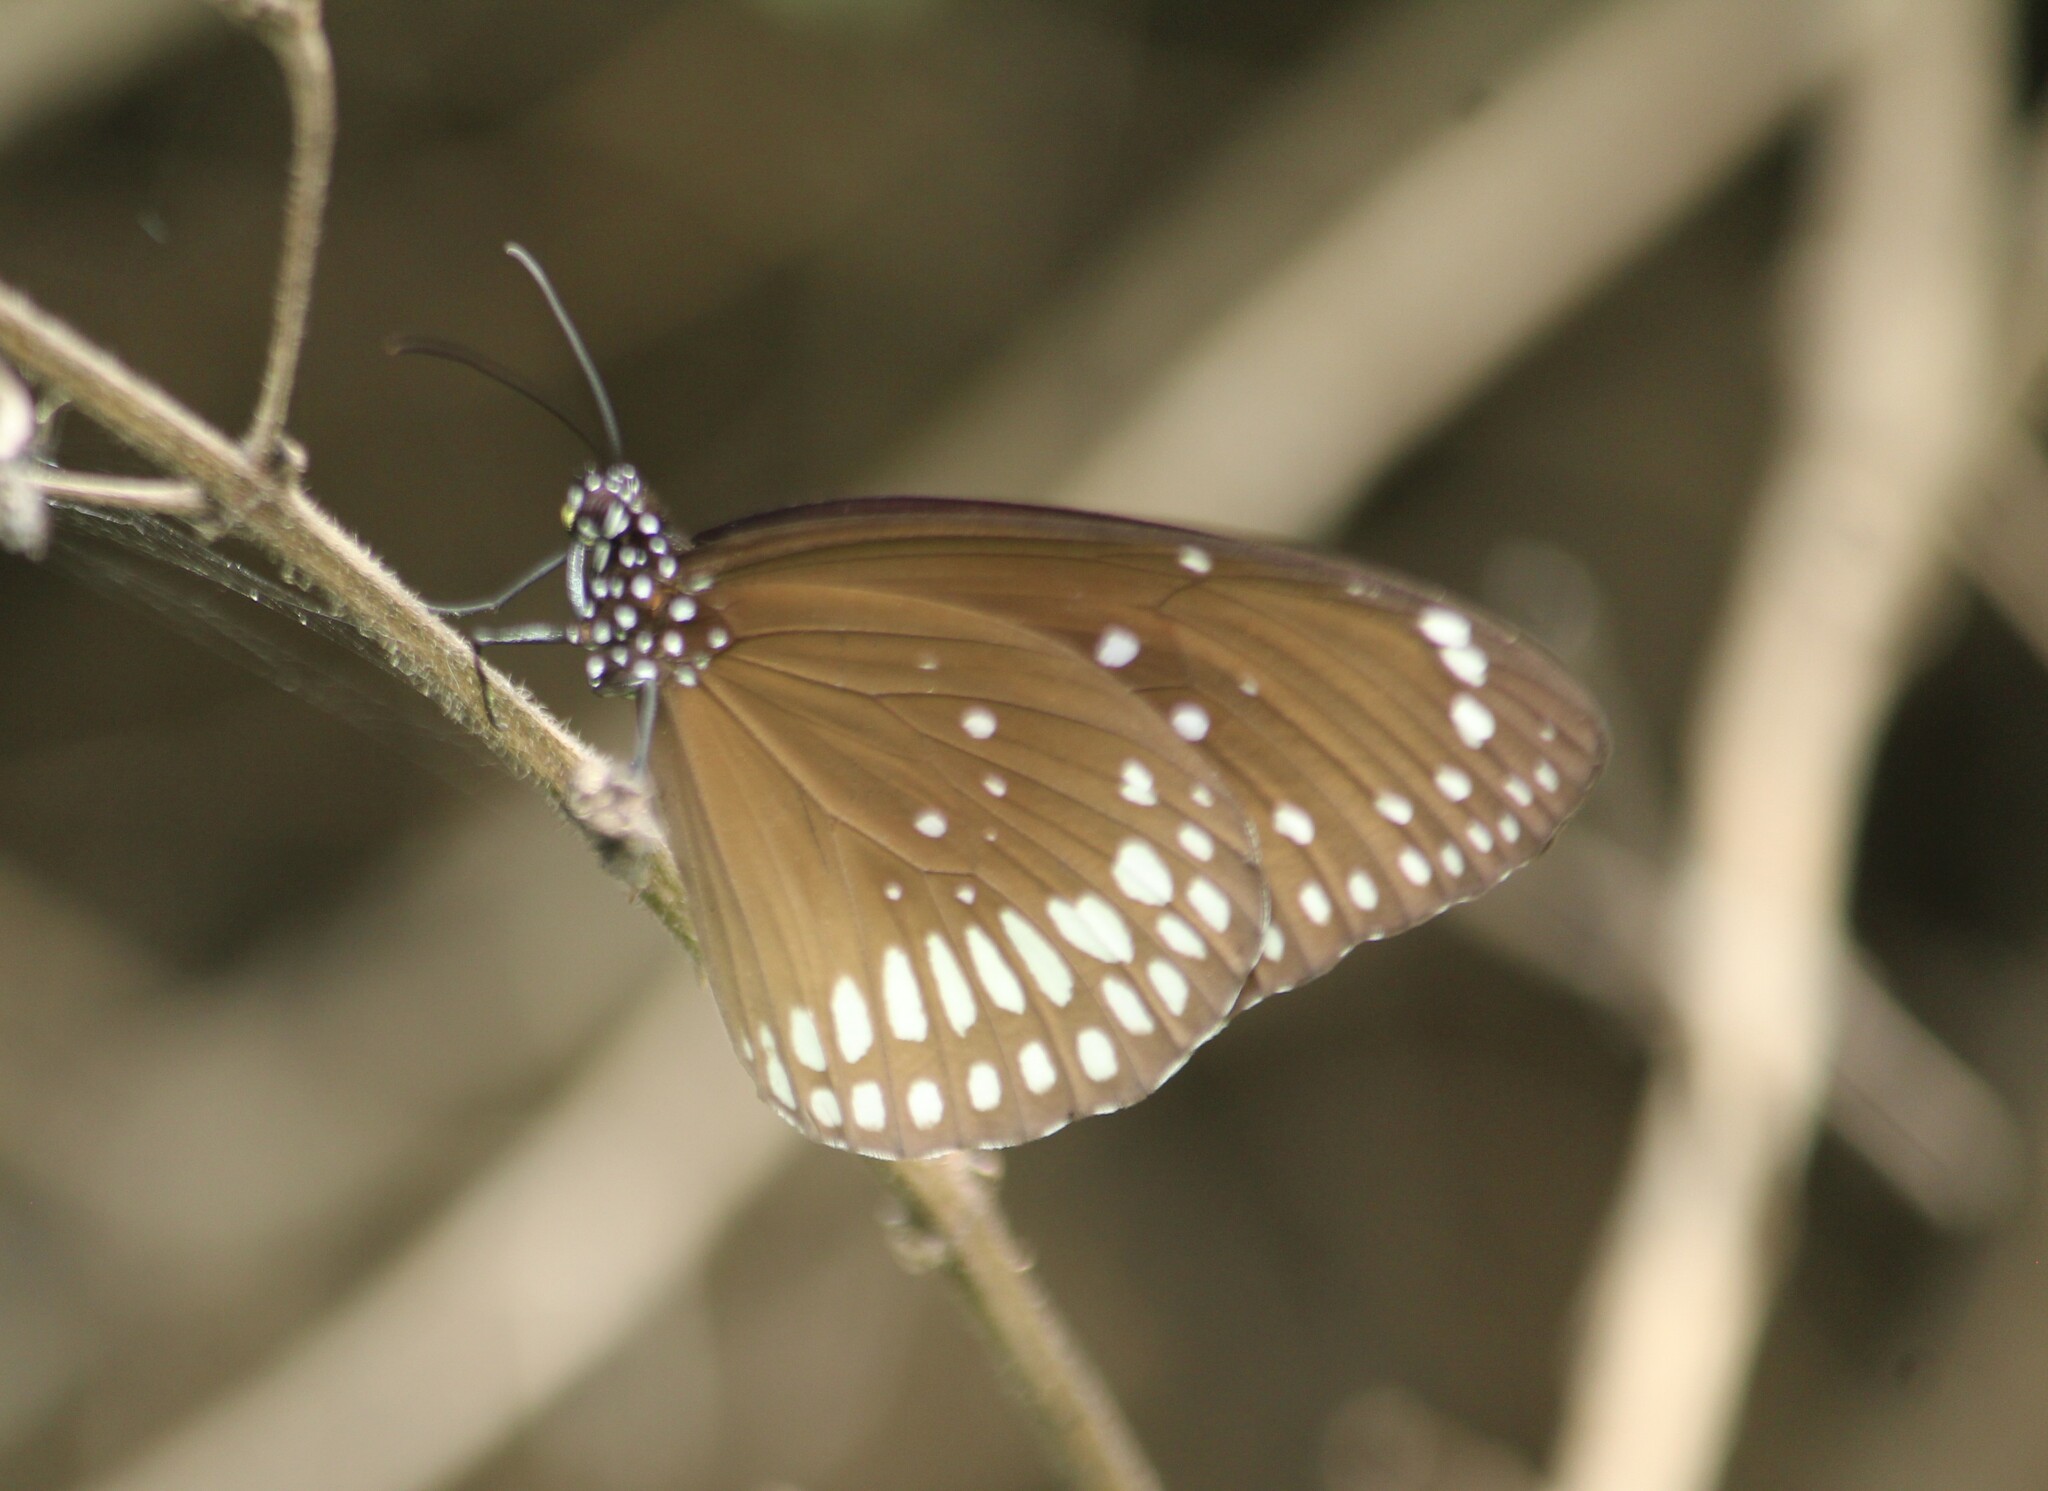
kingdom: Animalia
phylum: Arthropoda
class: Insecta
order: Lepidoptera
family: Nymphalidae
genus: Euploea
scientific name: Euploea core
